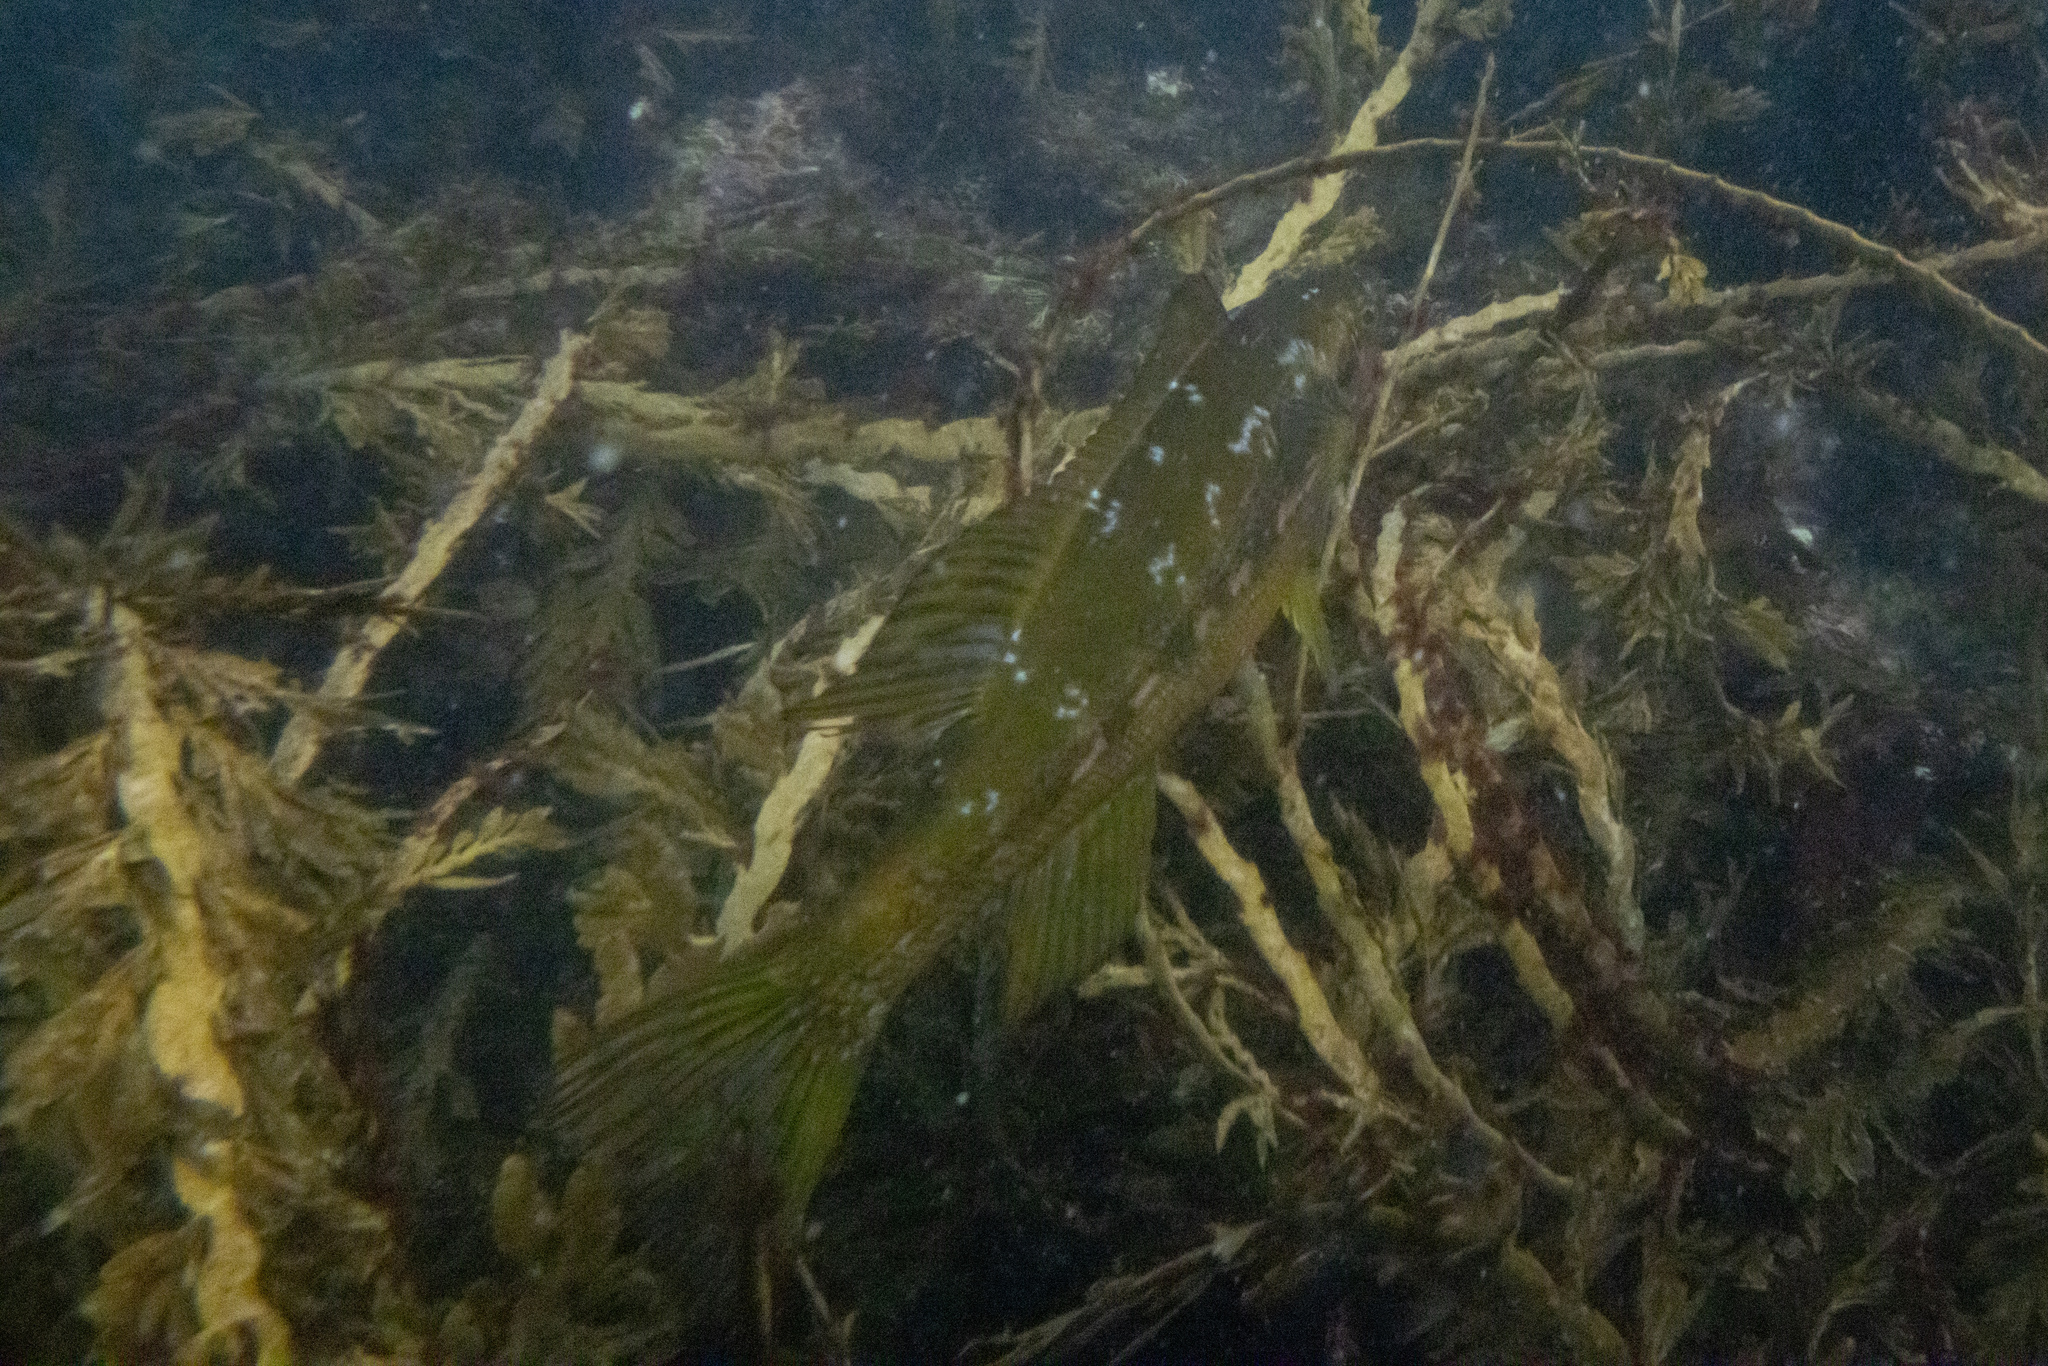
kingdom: Animalia
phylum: Chordata
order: Perciformes
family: Odacidae
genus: Odax
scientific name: Odax pullus
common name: Butterfish
